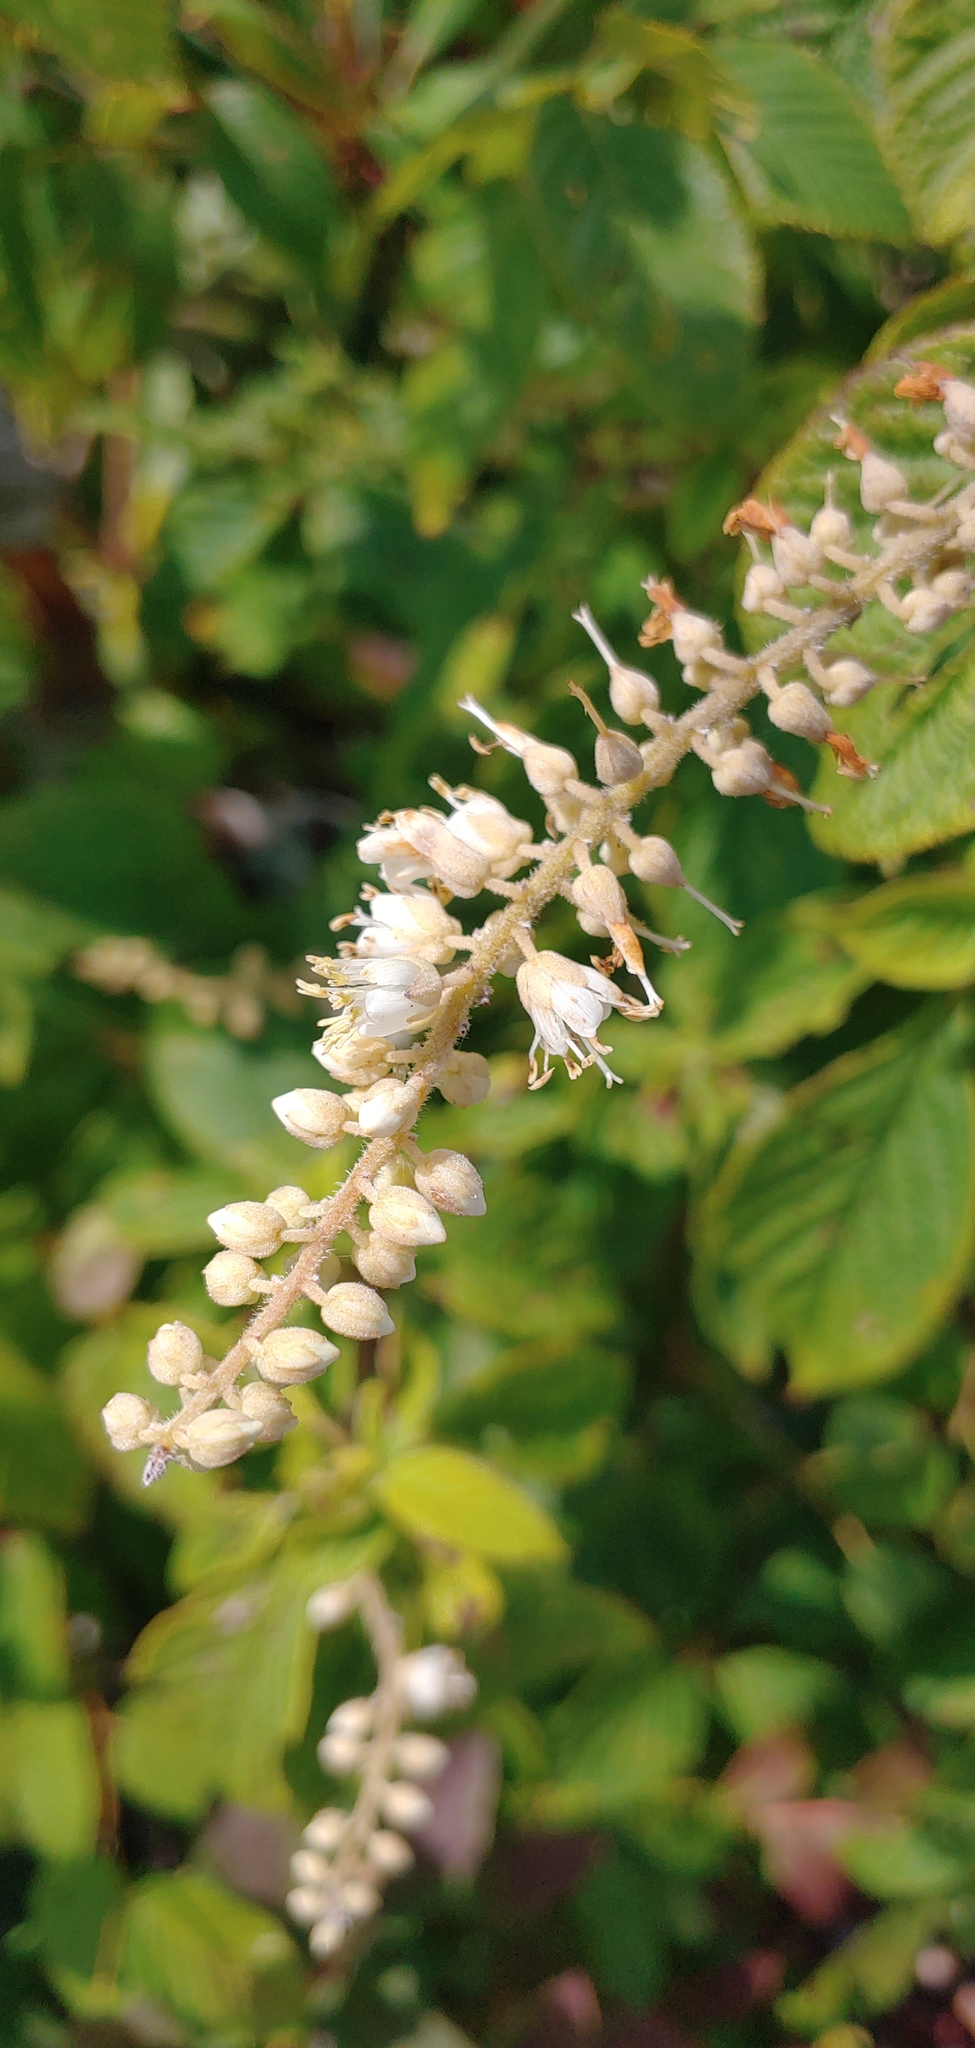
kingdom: Plantae
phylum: Tracheophyta
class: Magnoliopsida
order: Ericales
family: Clethraceae
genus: Clethra
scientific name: Clethra acuminata
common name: Mountain sweet pepperbush
